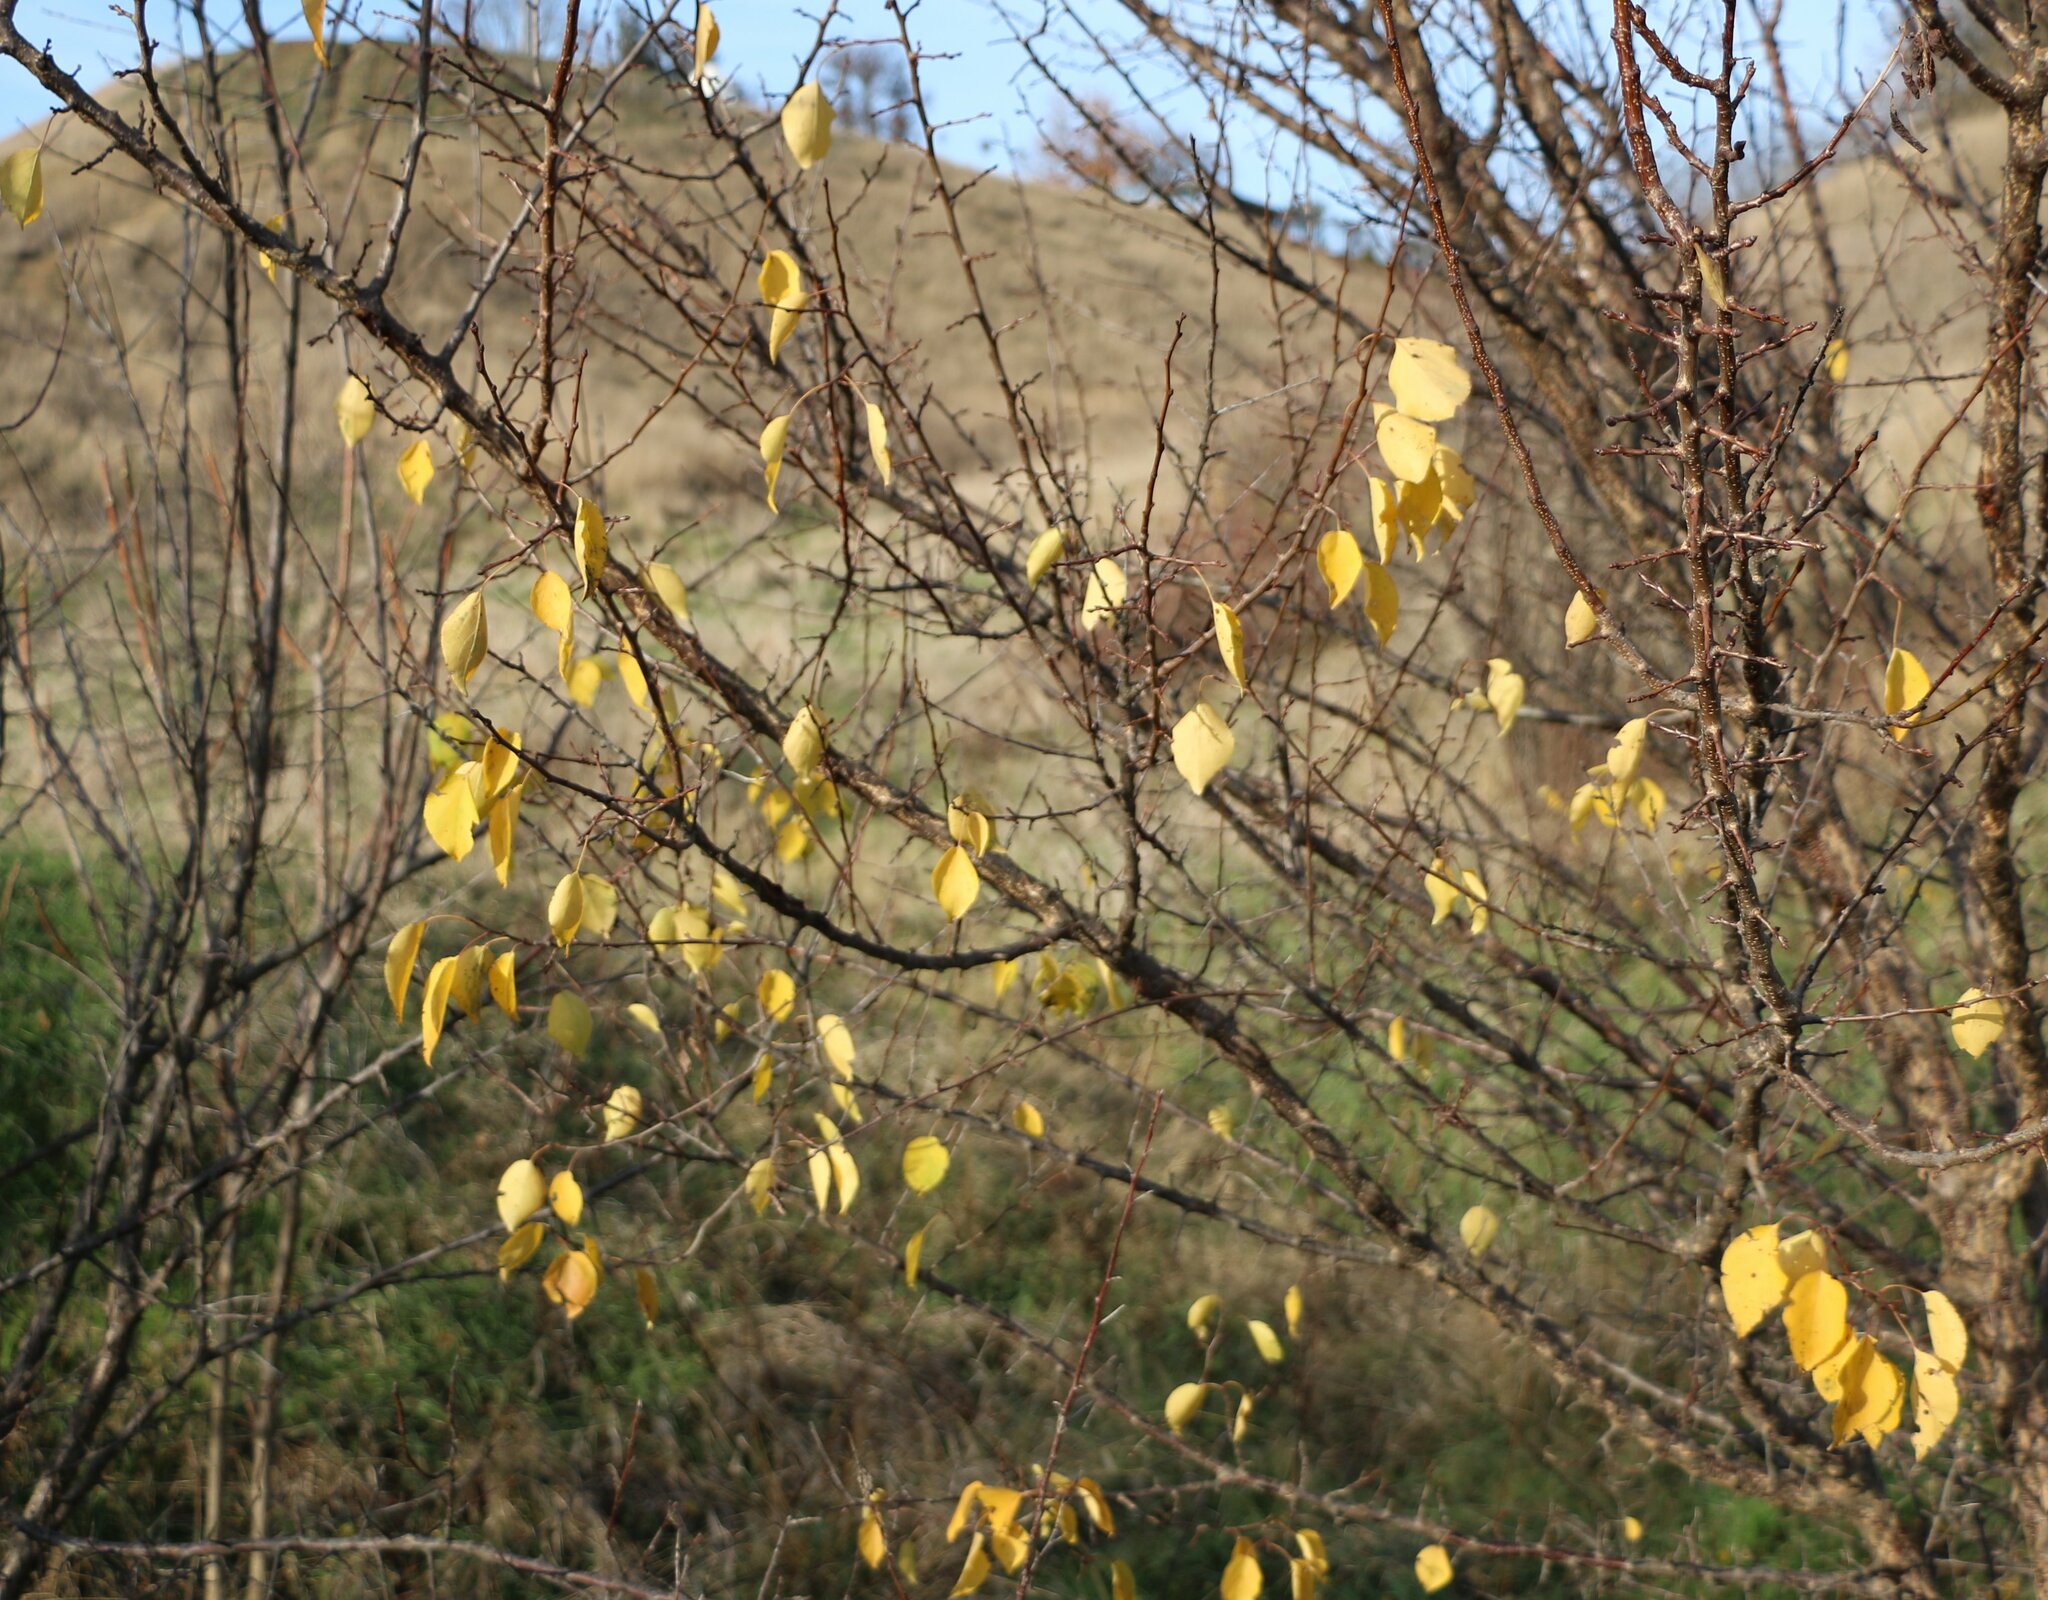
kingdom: Plantae
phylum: Tracheophyta
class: Magnoliopsida
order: Rosales
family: Rosaceae
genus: Prunus
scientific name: Prunus armeniaca
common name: Apricot
